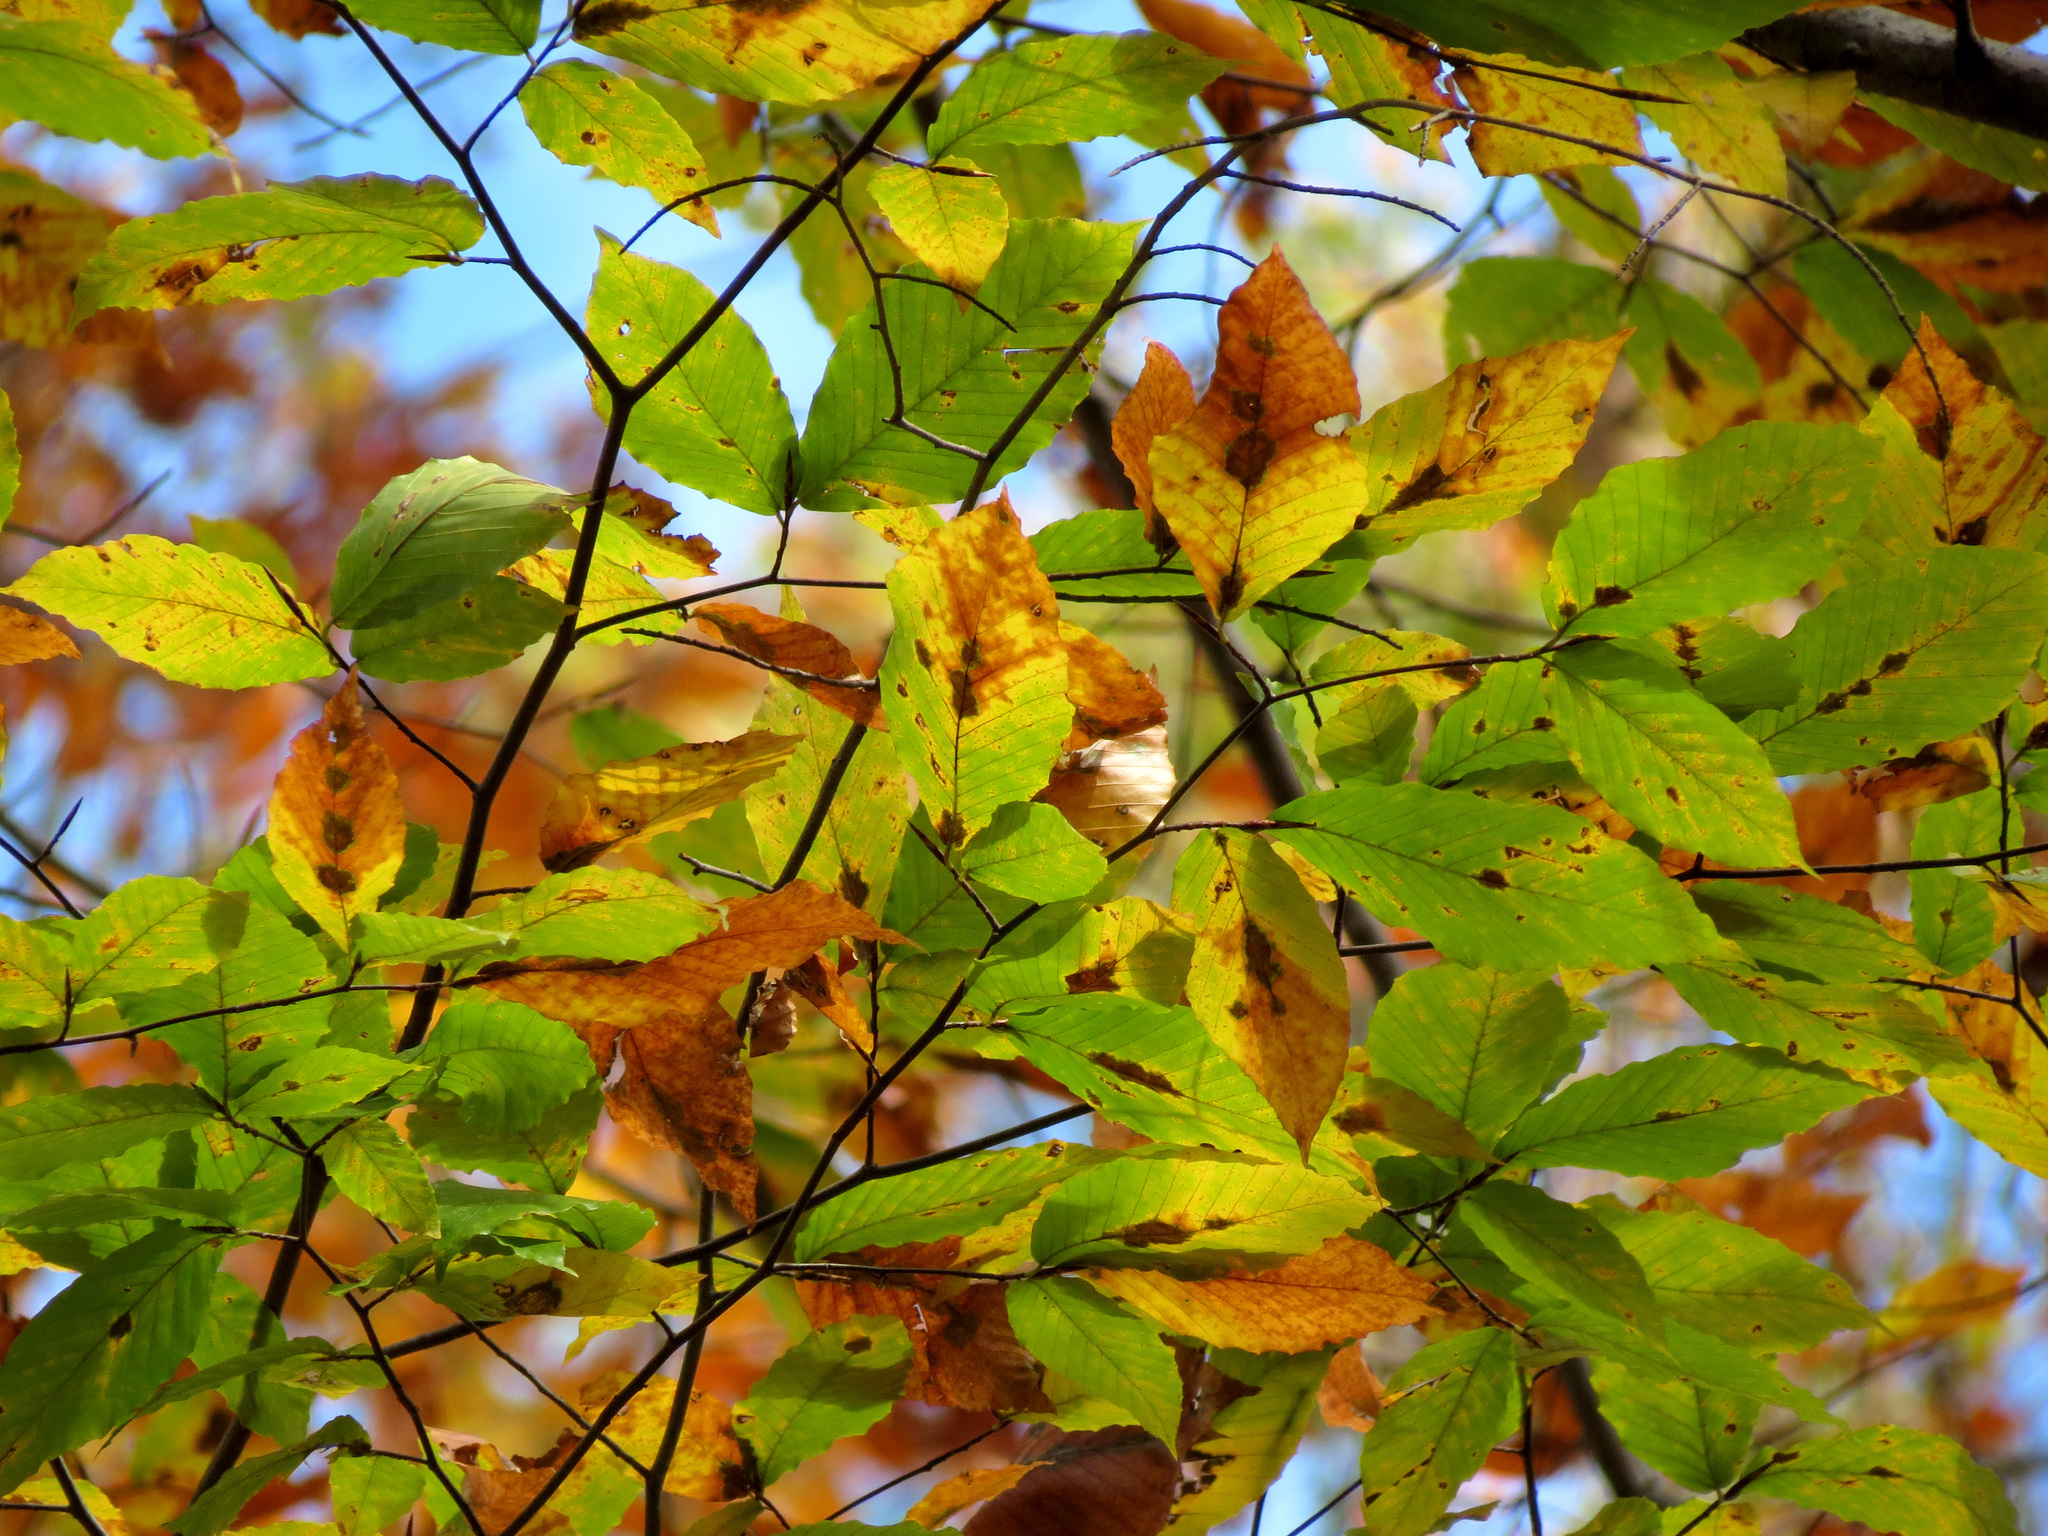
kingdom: Plantae
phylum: Tracheophyta
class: Magnoliopsida
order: Fagales
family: Fagaceae
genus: Fagus
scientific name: Fagus grandifolia
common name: American beech
